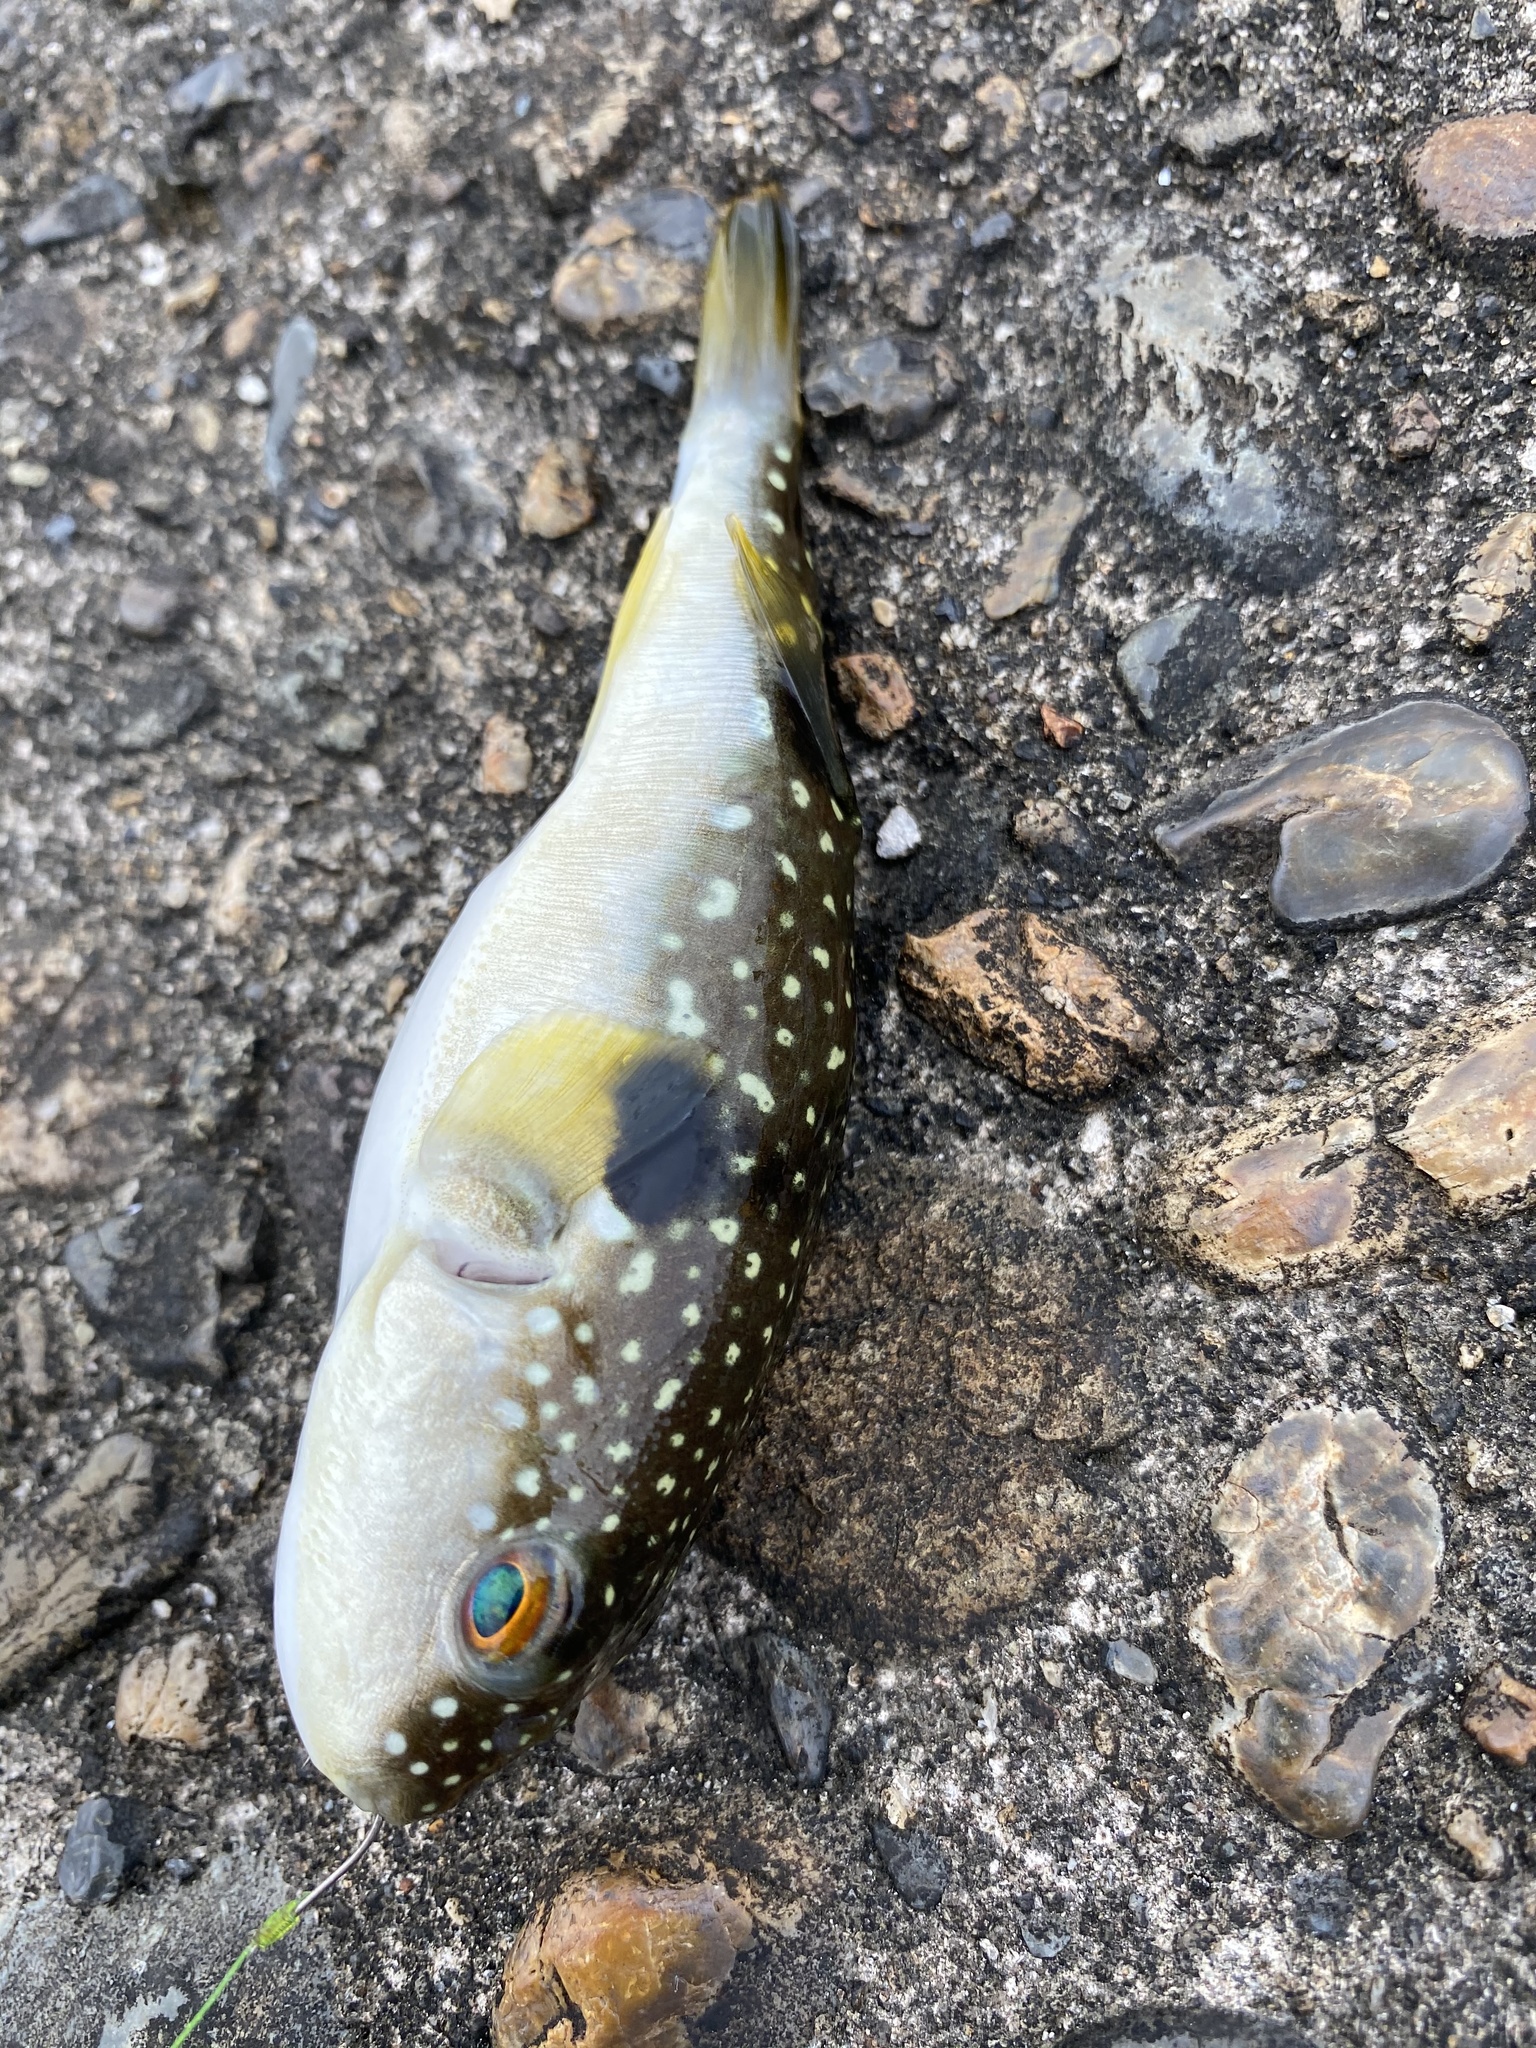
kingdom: Animalia
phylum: Chordata
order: Tetraodontiformes
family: Tetraodontidae
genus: Takifugu
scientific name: Takifugu alboplumbeus
